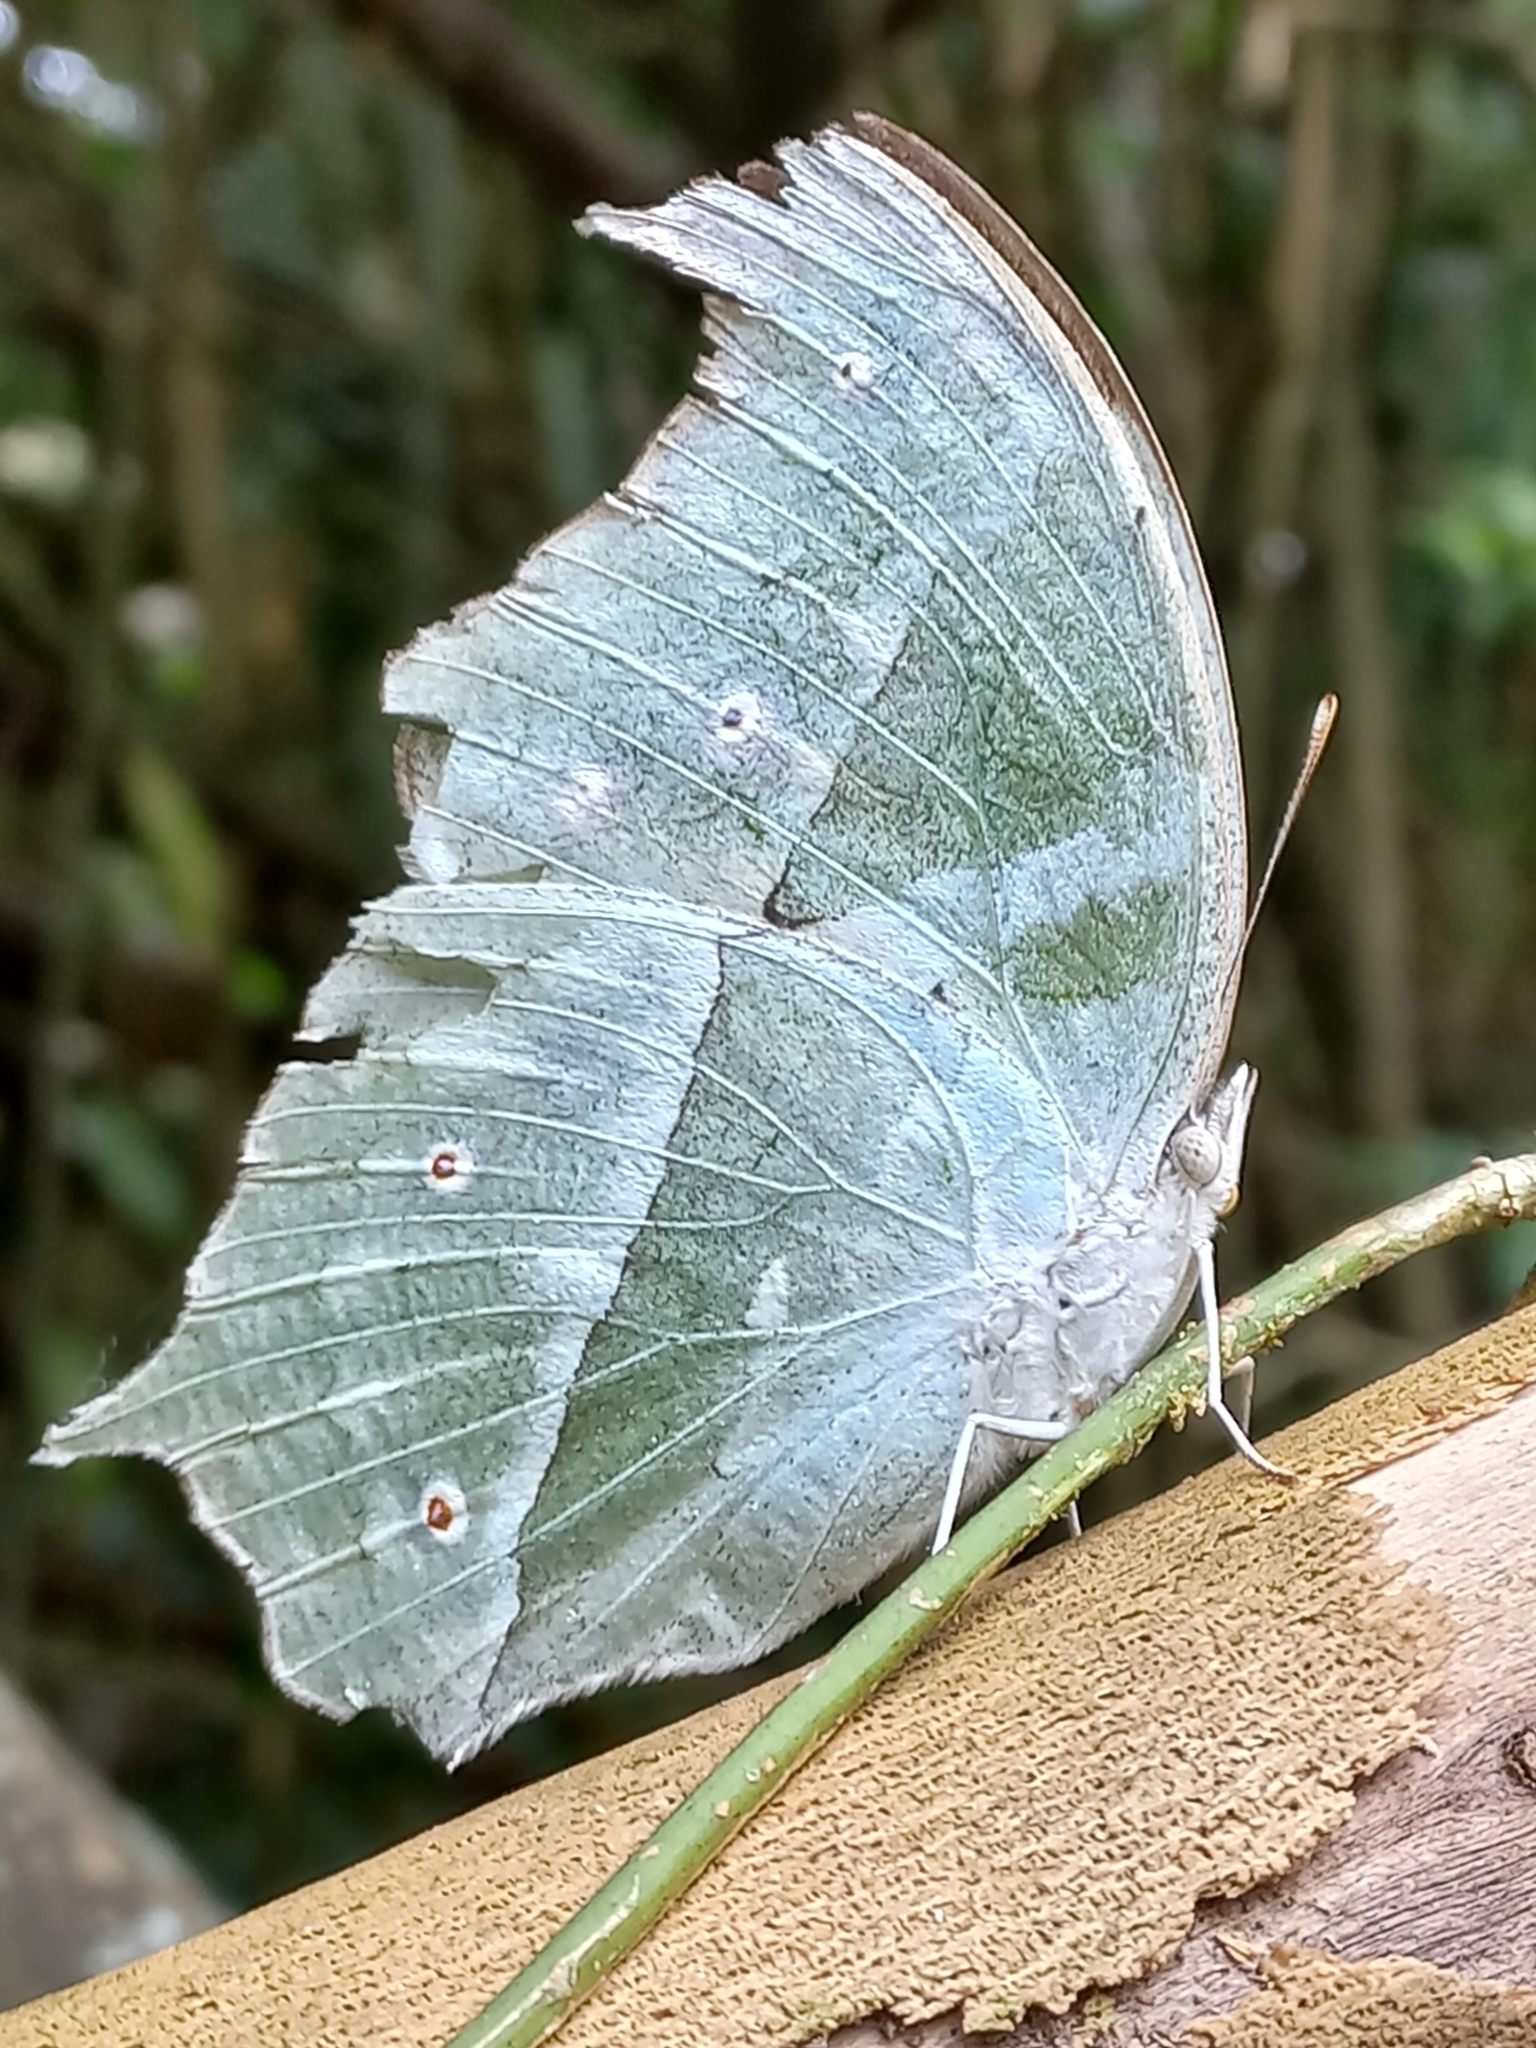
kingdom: Animalia
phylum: Arthropoda
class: Insecta
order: Lepidoptera
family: Nymphalidae
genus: Salamis
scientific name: Salamis Protogoniomorpha parhassus
